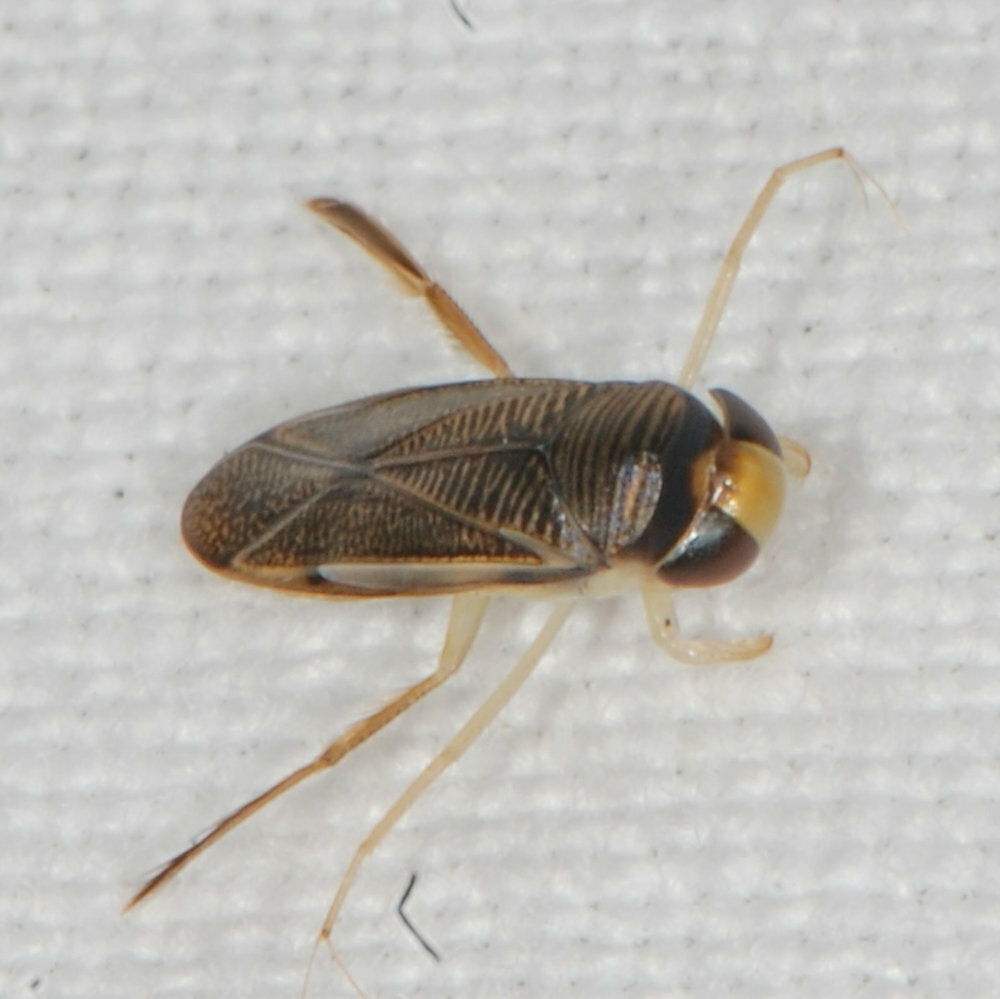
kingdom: Animalia
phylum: Arthropoda
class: Insecta
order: Hemiptera
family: Corixidae
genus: Sigara
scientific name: Sigara
